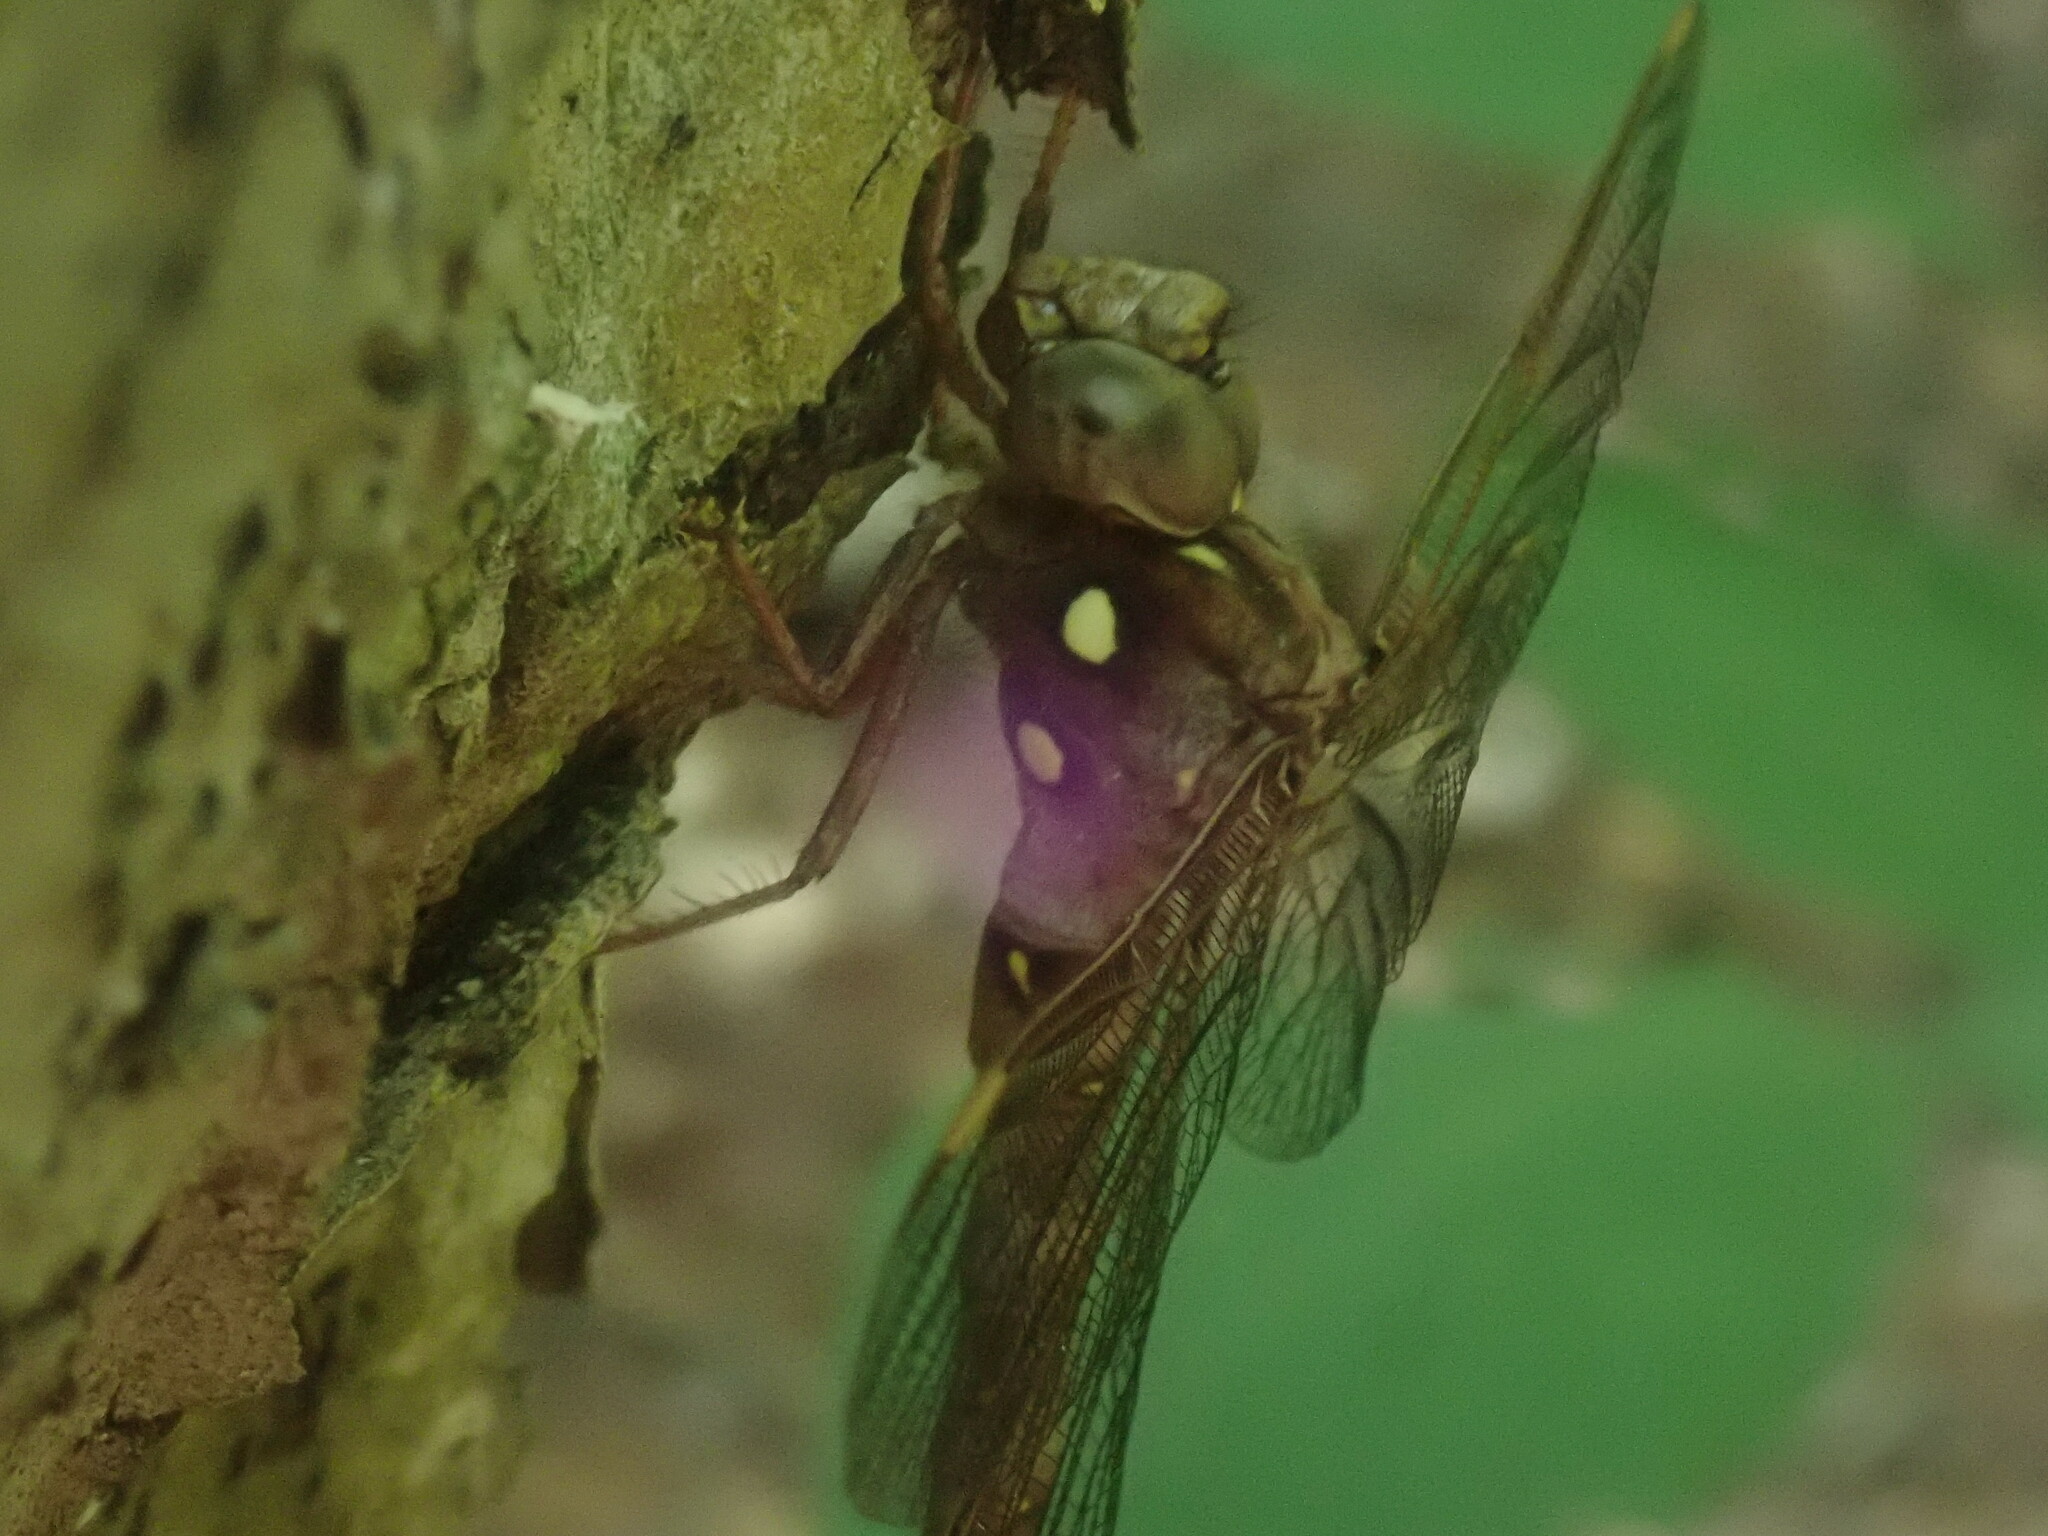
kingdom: Animalia
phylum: Arthropoda
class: Insecta
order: Odonata
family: Aeshnidae
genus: Boyeria
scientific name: Boyeria vinosa
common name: Fawn darner
